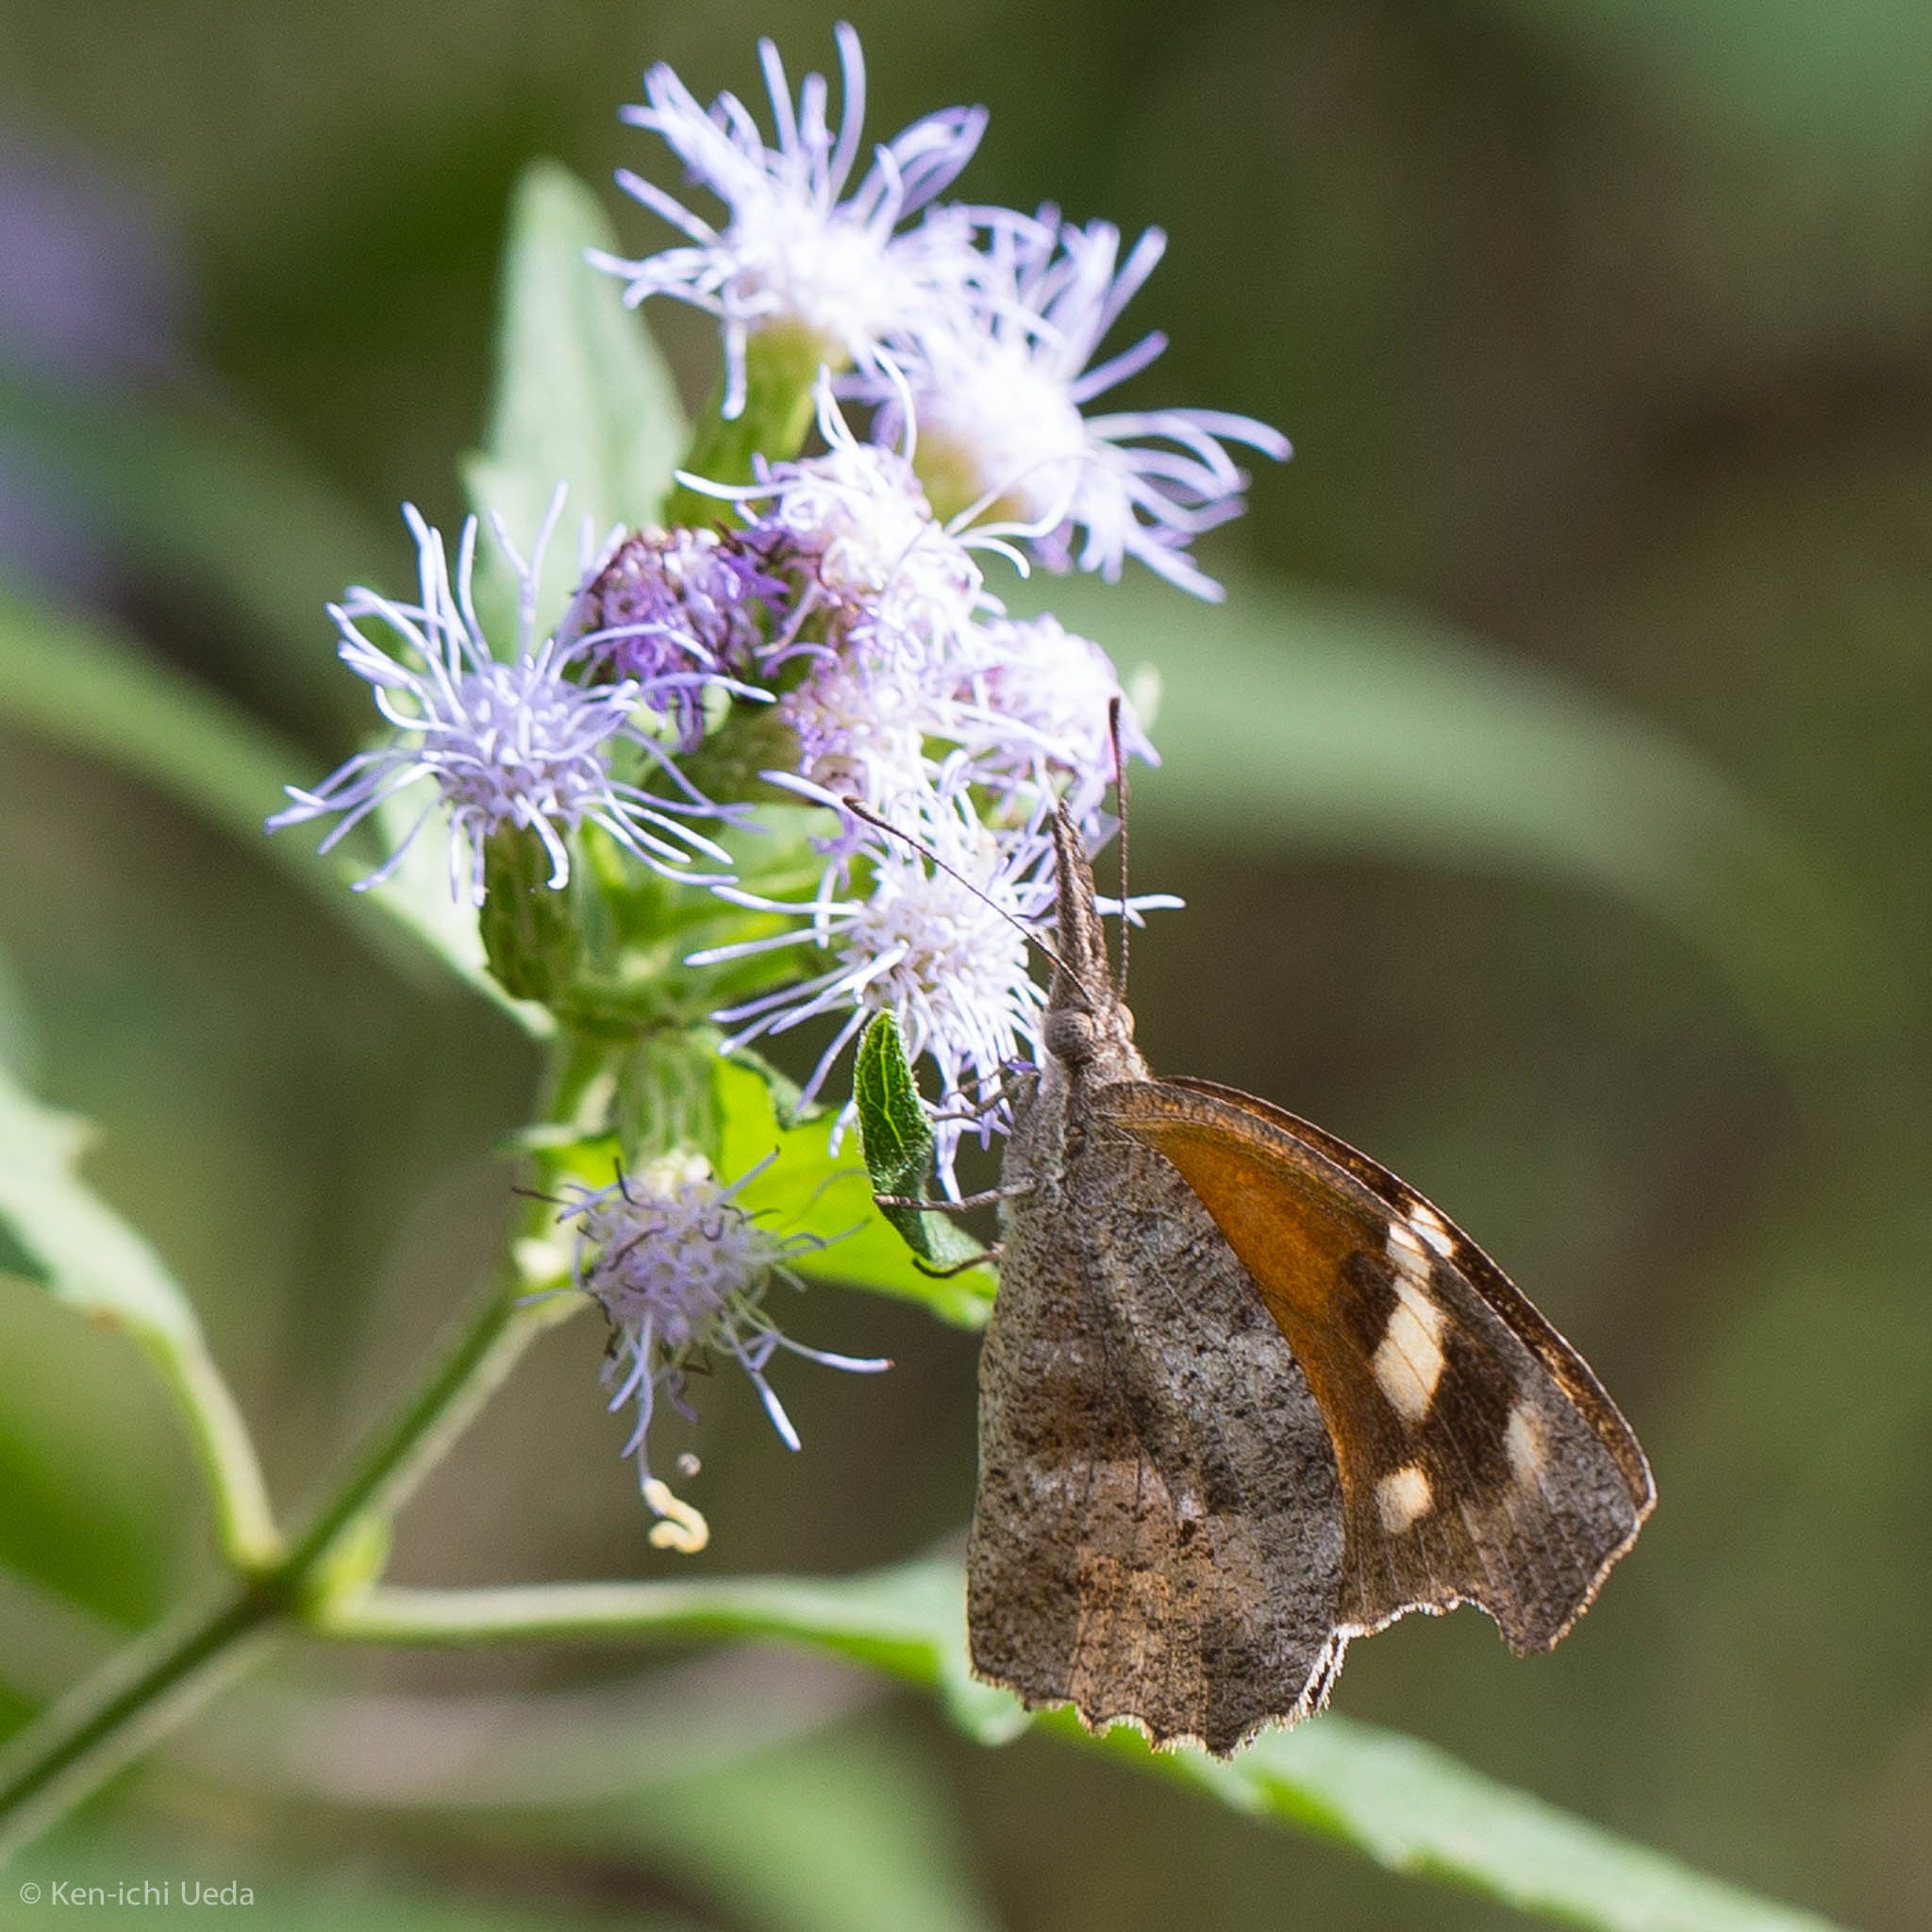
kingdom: Animalia
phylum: Arthropoda
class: Insecta
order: Lepidoptera
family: Nymphalidae
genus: Libytheana
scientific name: Libytheana carinenta
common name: American snout
